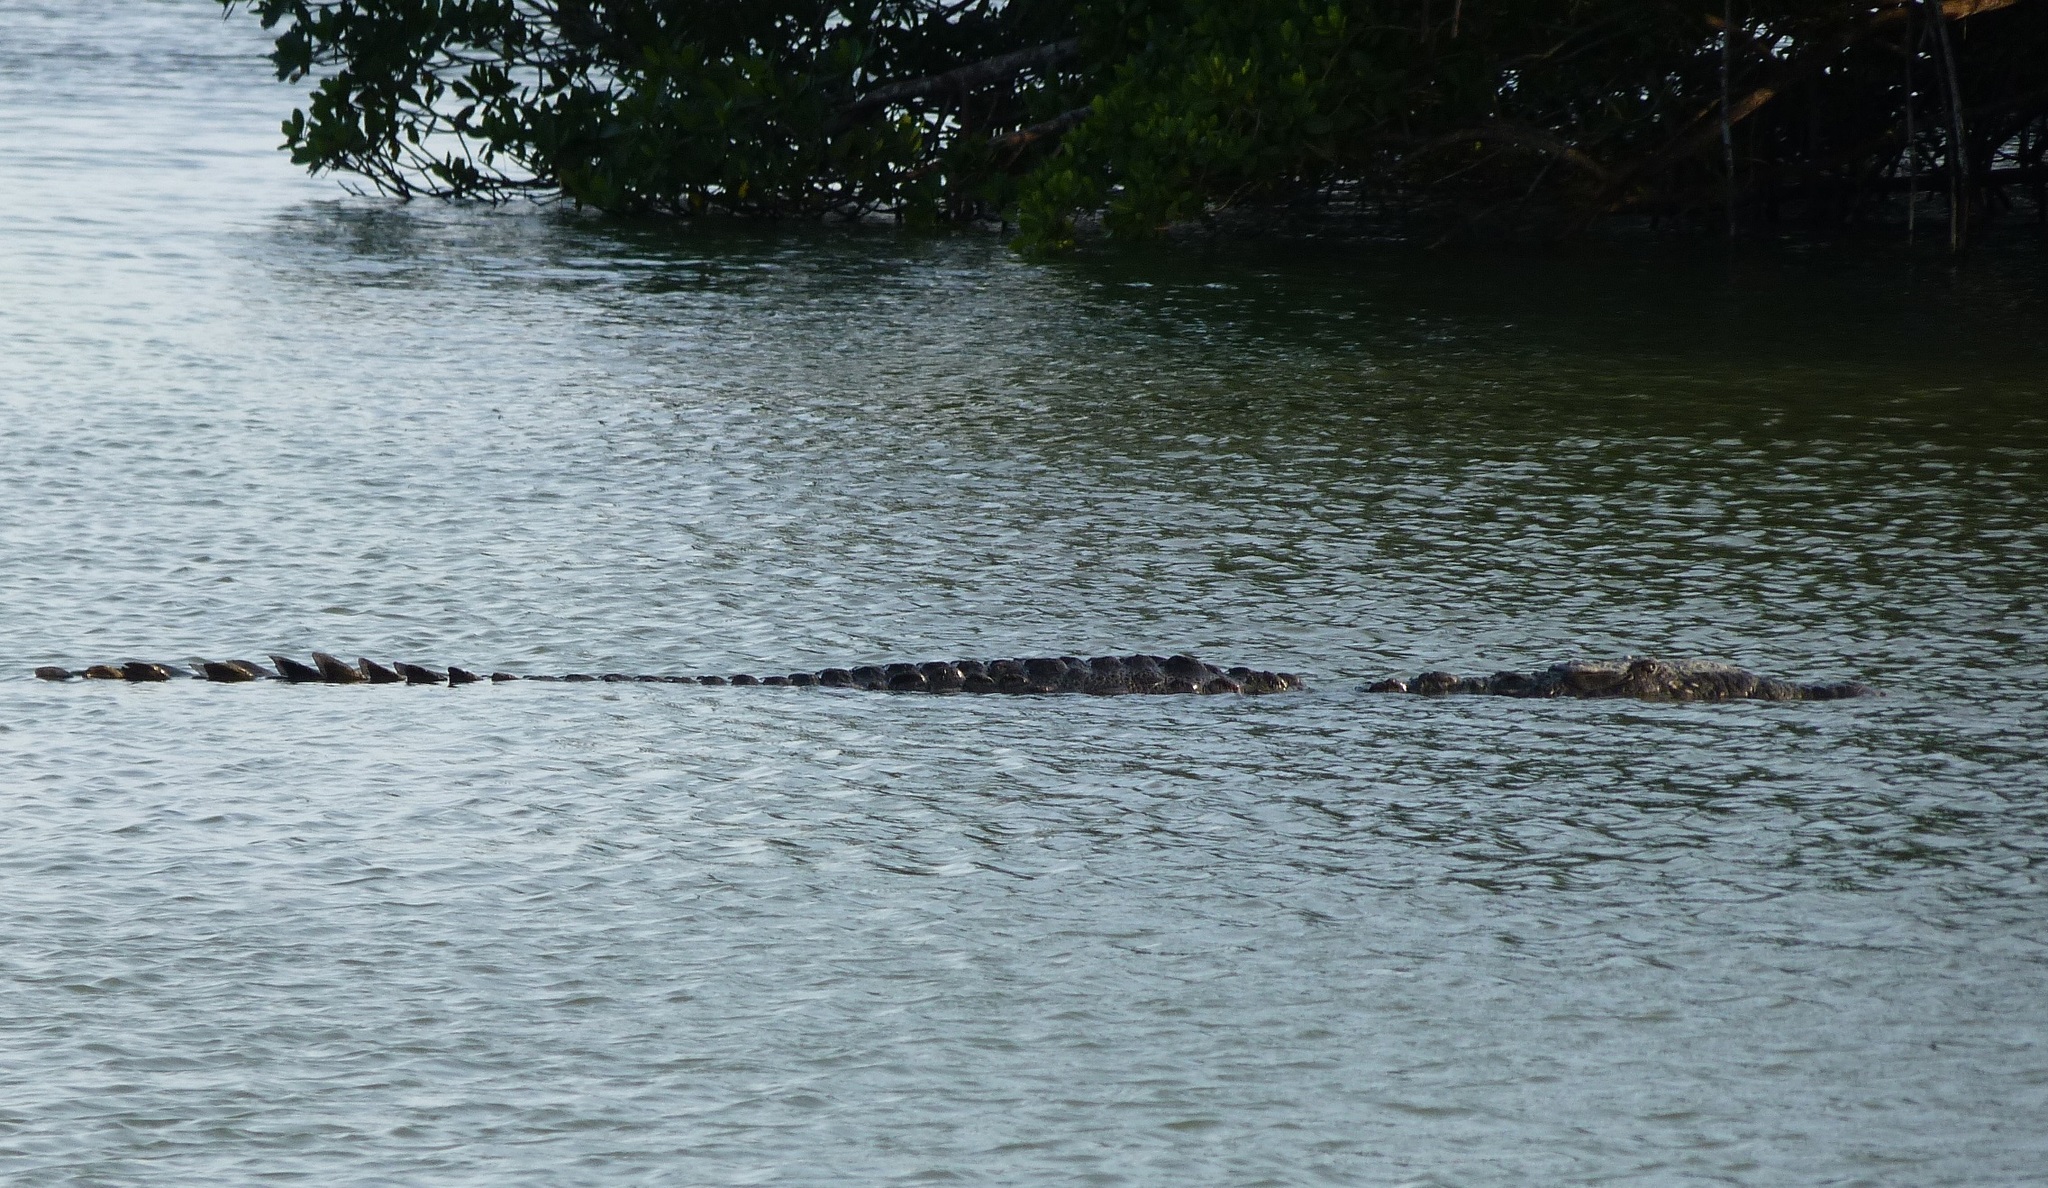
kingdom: Animalia
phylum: Chordata
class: Crocodylia
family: Crocodylidae
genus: Crocodylus
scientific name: Crocodylus acutus
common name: American crocodile
